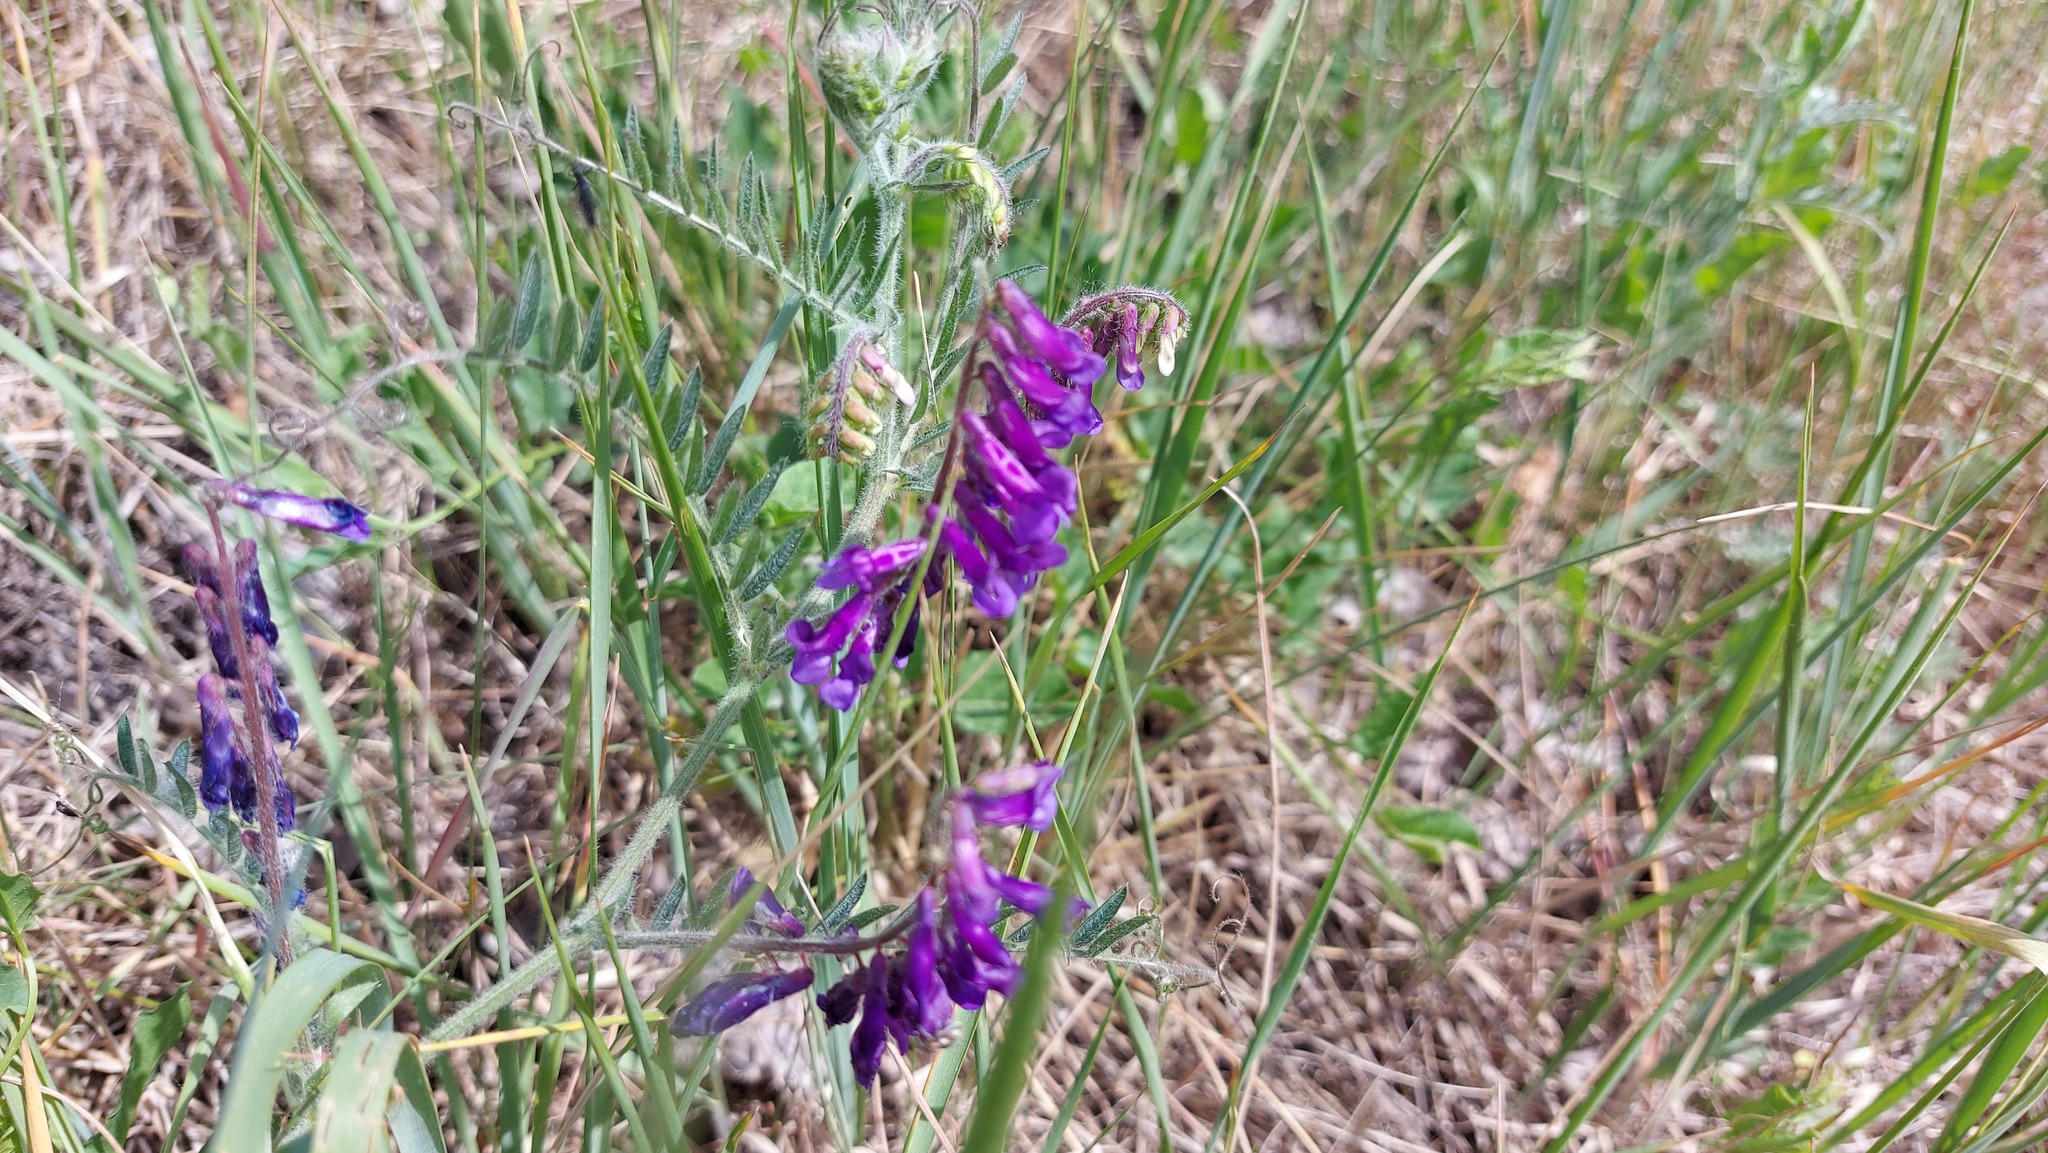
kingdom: Plantae
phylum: Tracheophyta
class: Magnoliopsida
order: Fabales
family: Fabaceae
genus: Vicia
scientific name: Vicia villosa
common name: Fodder vetch
